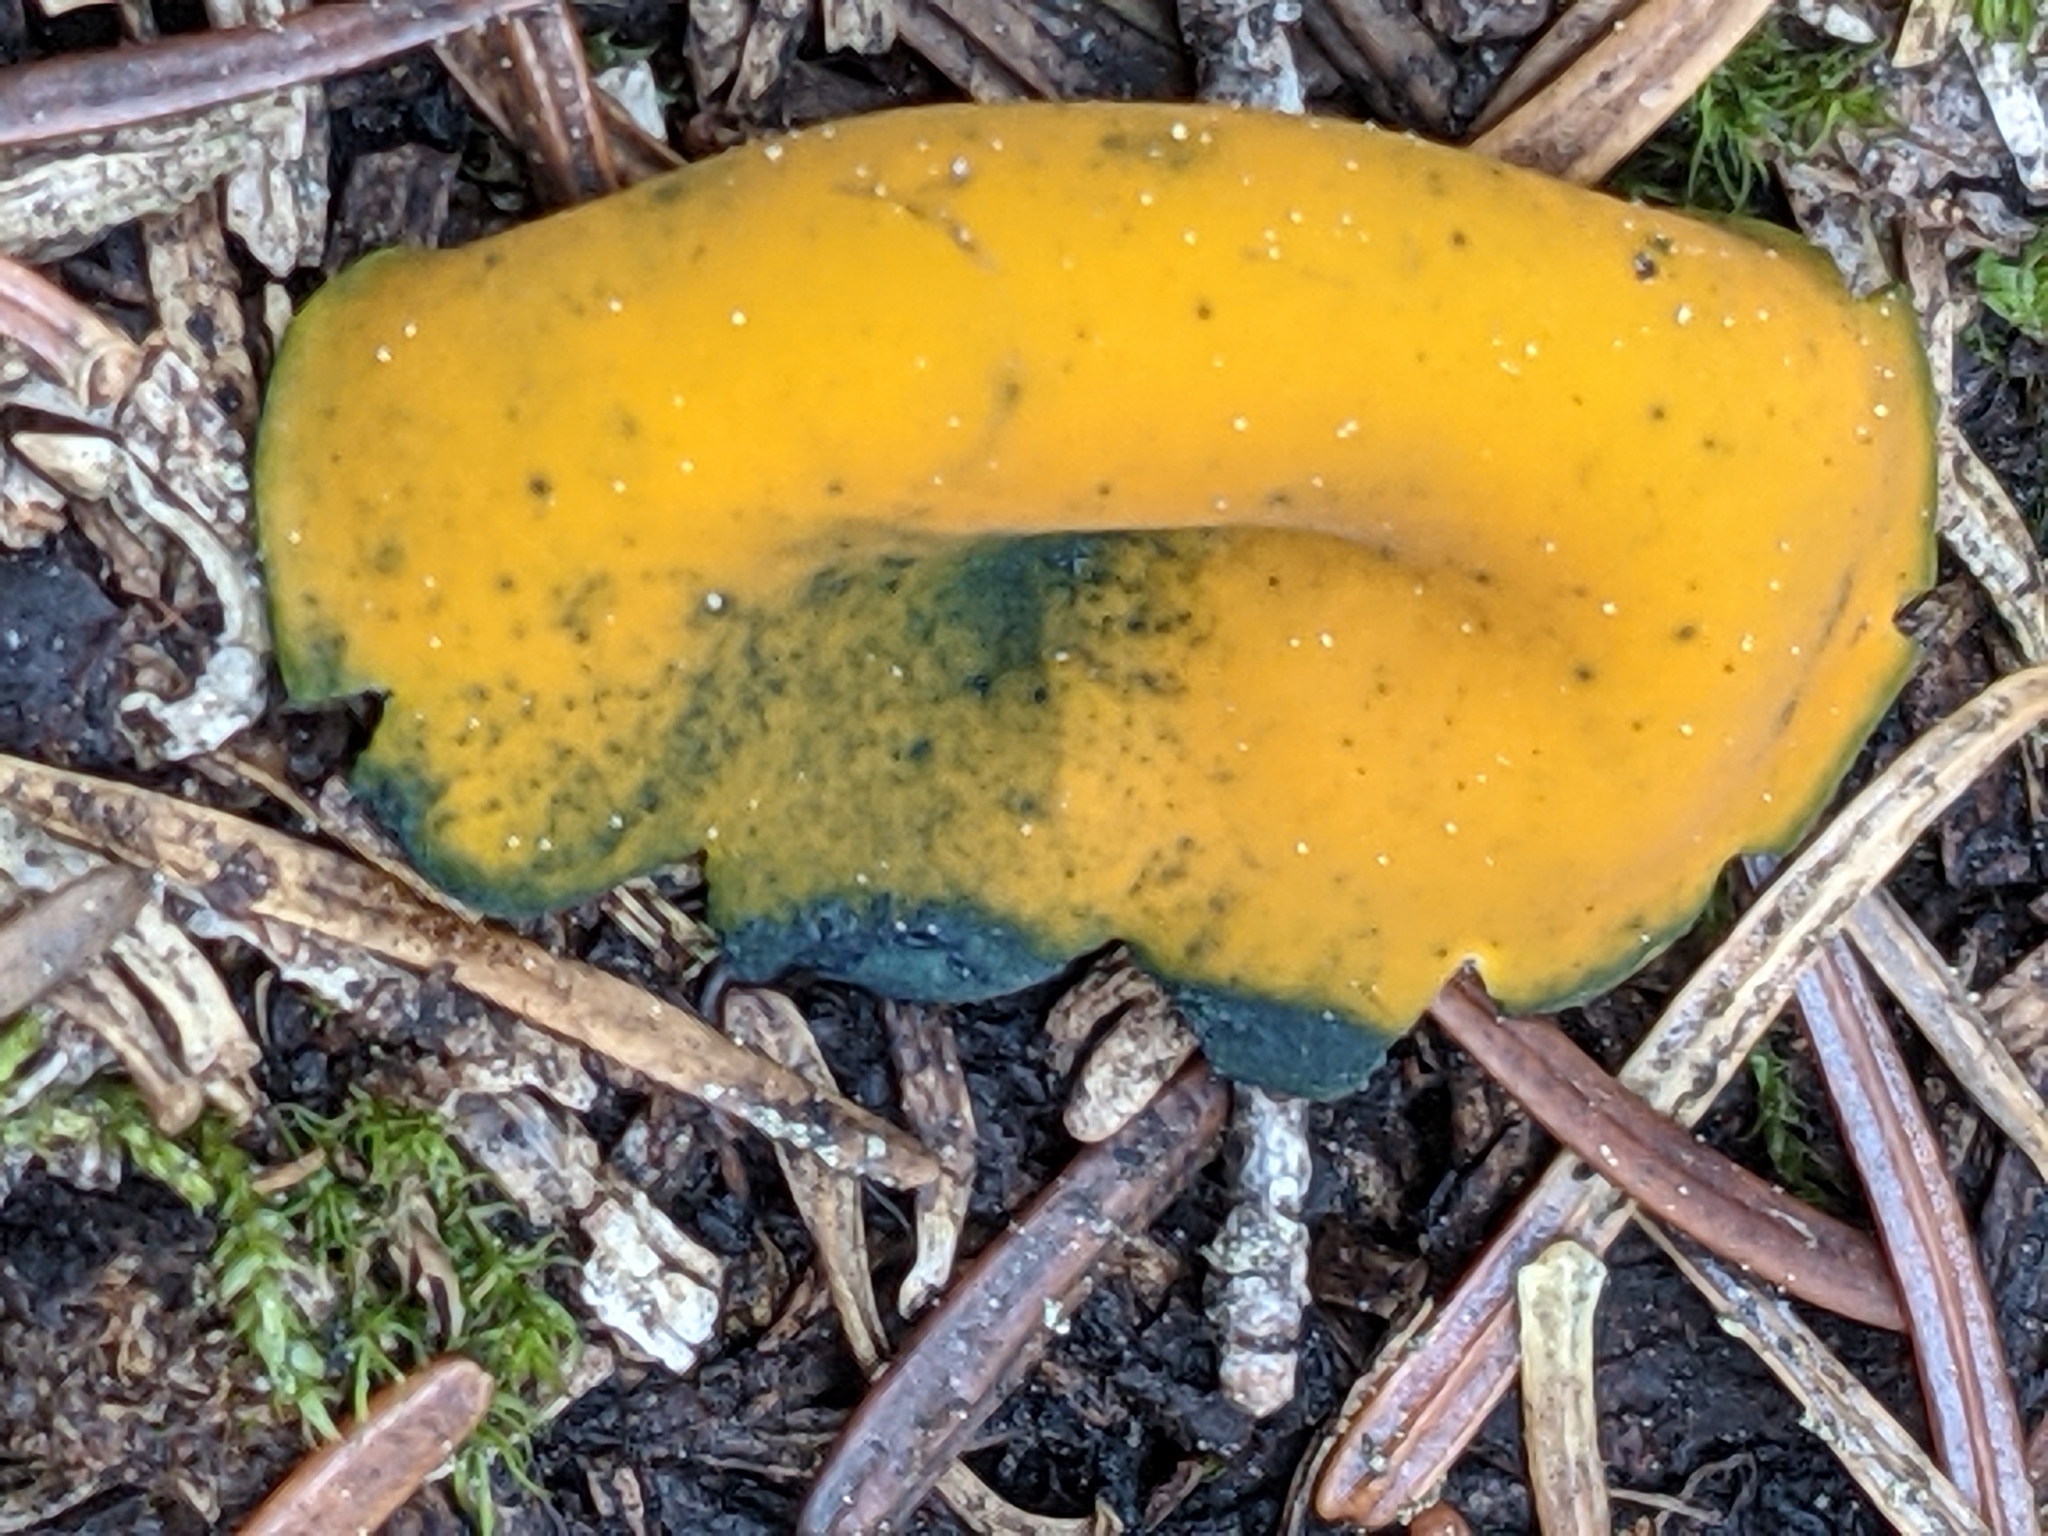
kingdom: Fungi
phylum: Ascomycota
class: Pezizomycetes
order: Pezizales
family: Caloscyphaceae
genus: Caloscypha
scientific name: Caloscypha fulgens
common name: Golden cup
